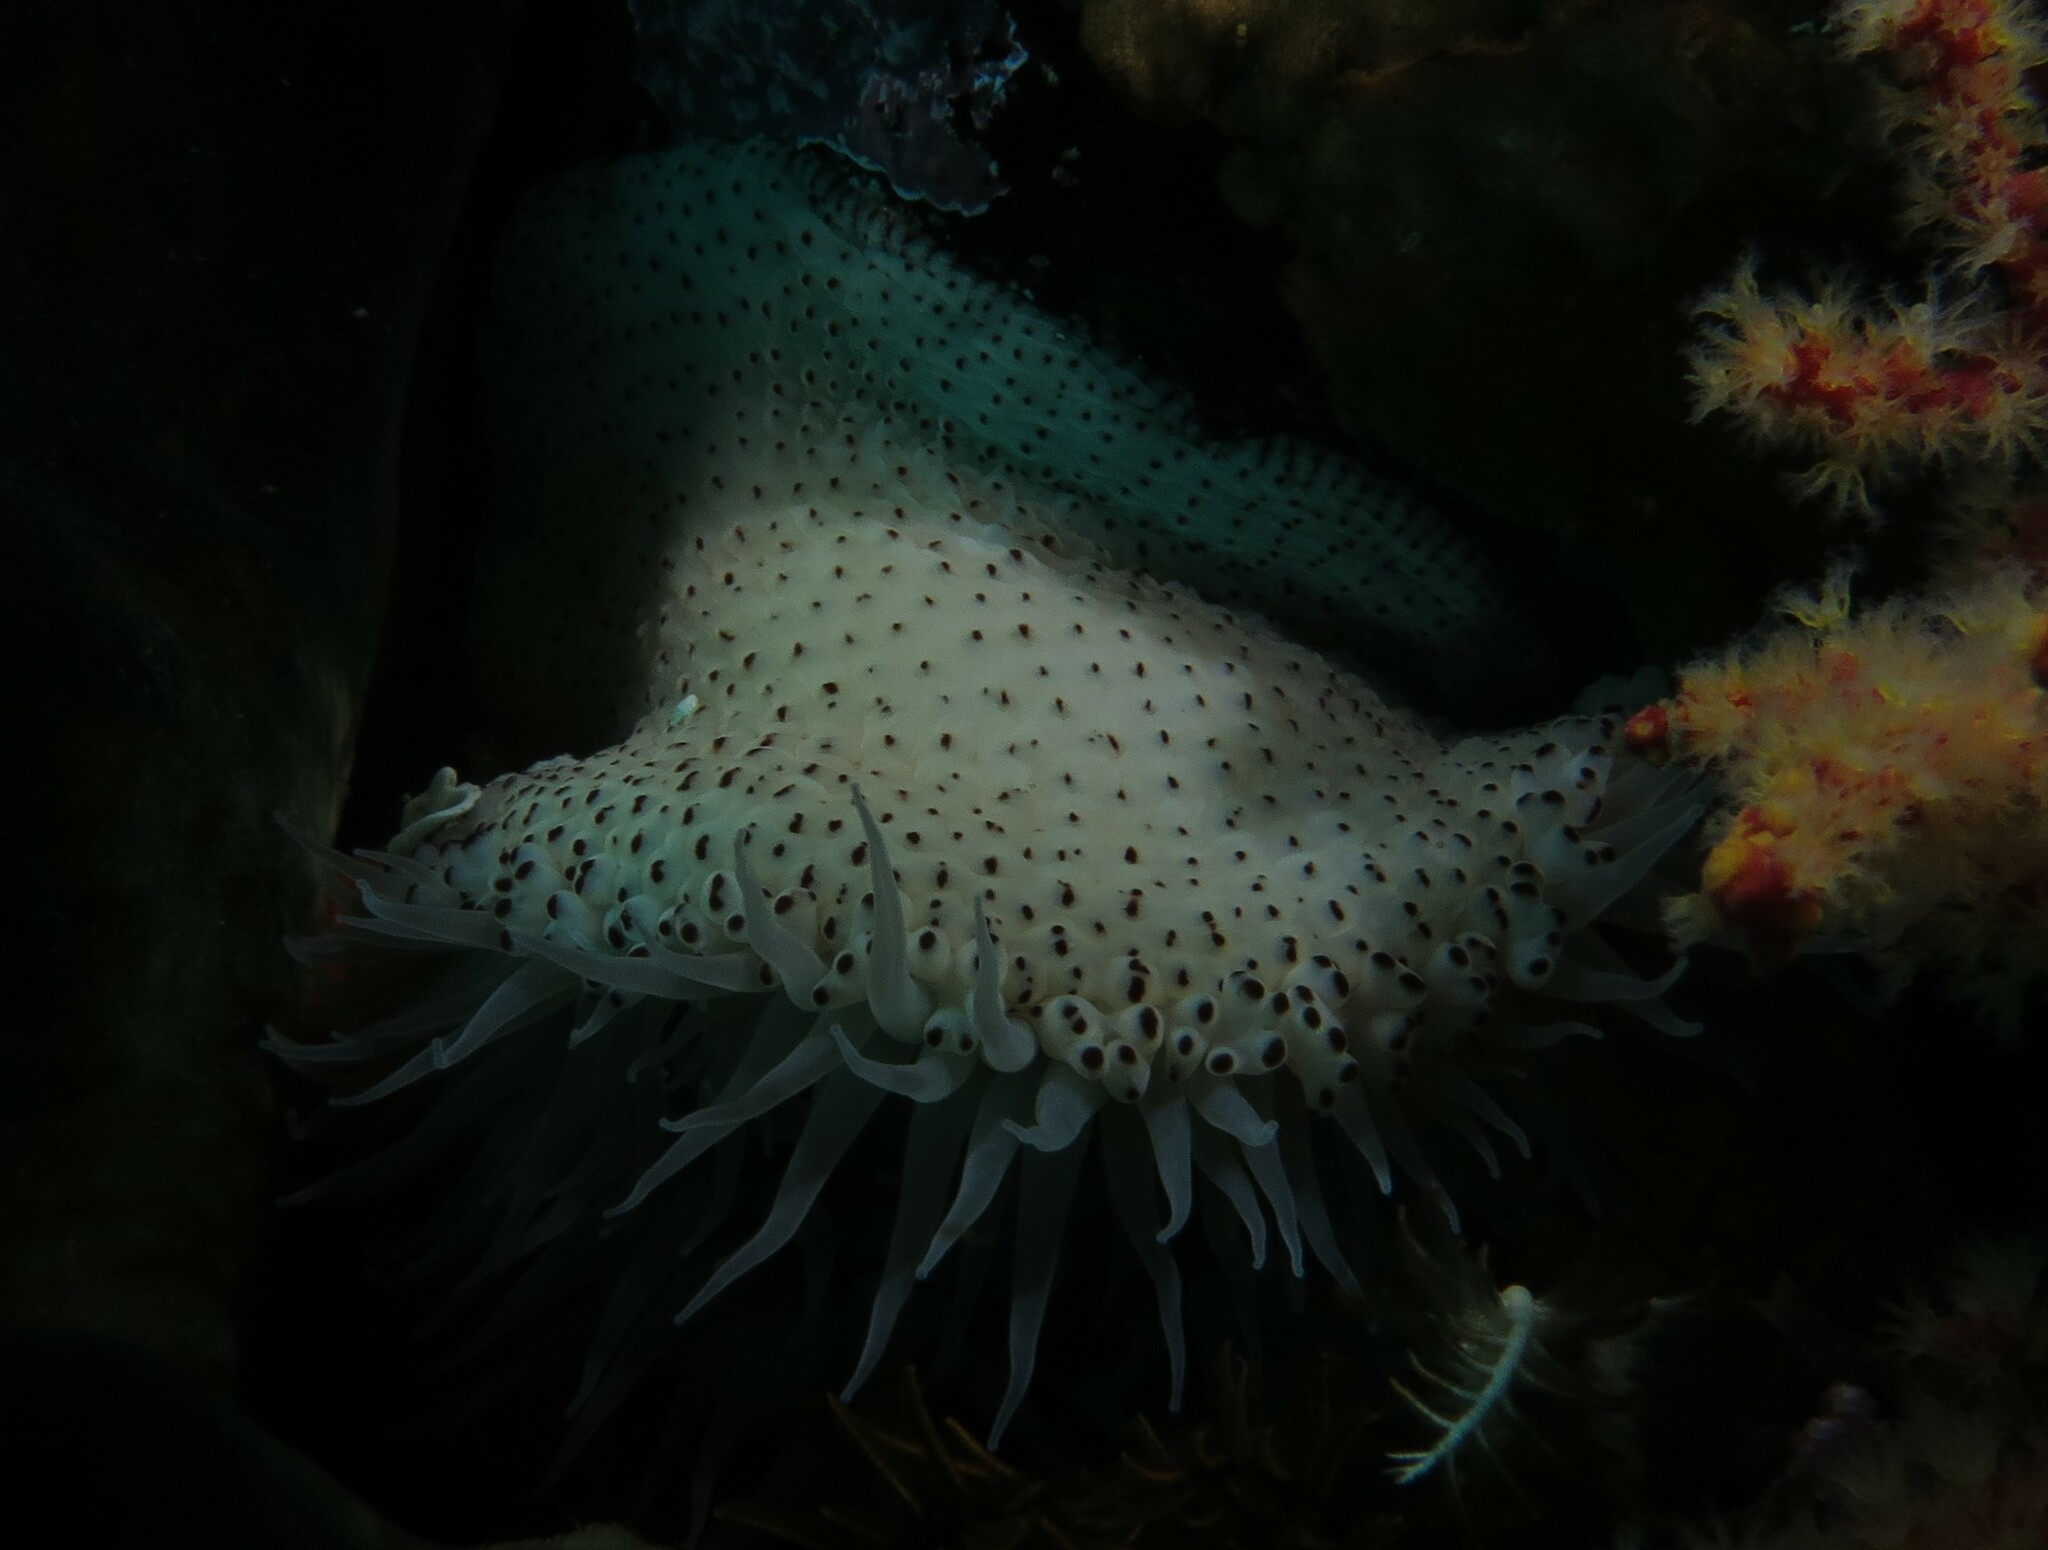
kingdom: Animalia
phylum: Cnidaria
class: Anthozoa
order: Actiniaria
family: Actiniidae
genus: Bunodosoma
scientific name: Bunodosoma capense
